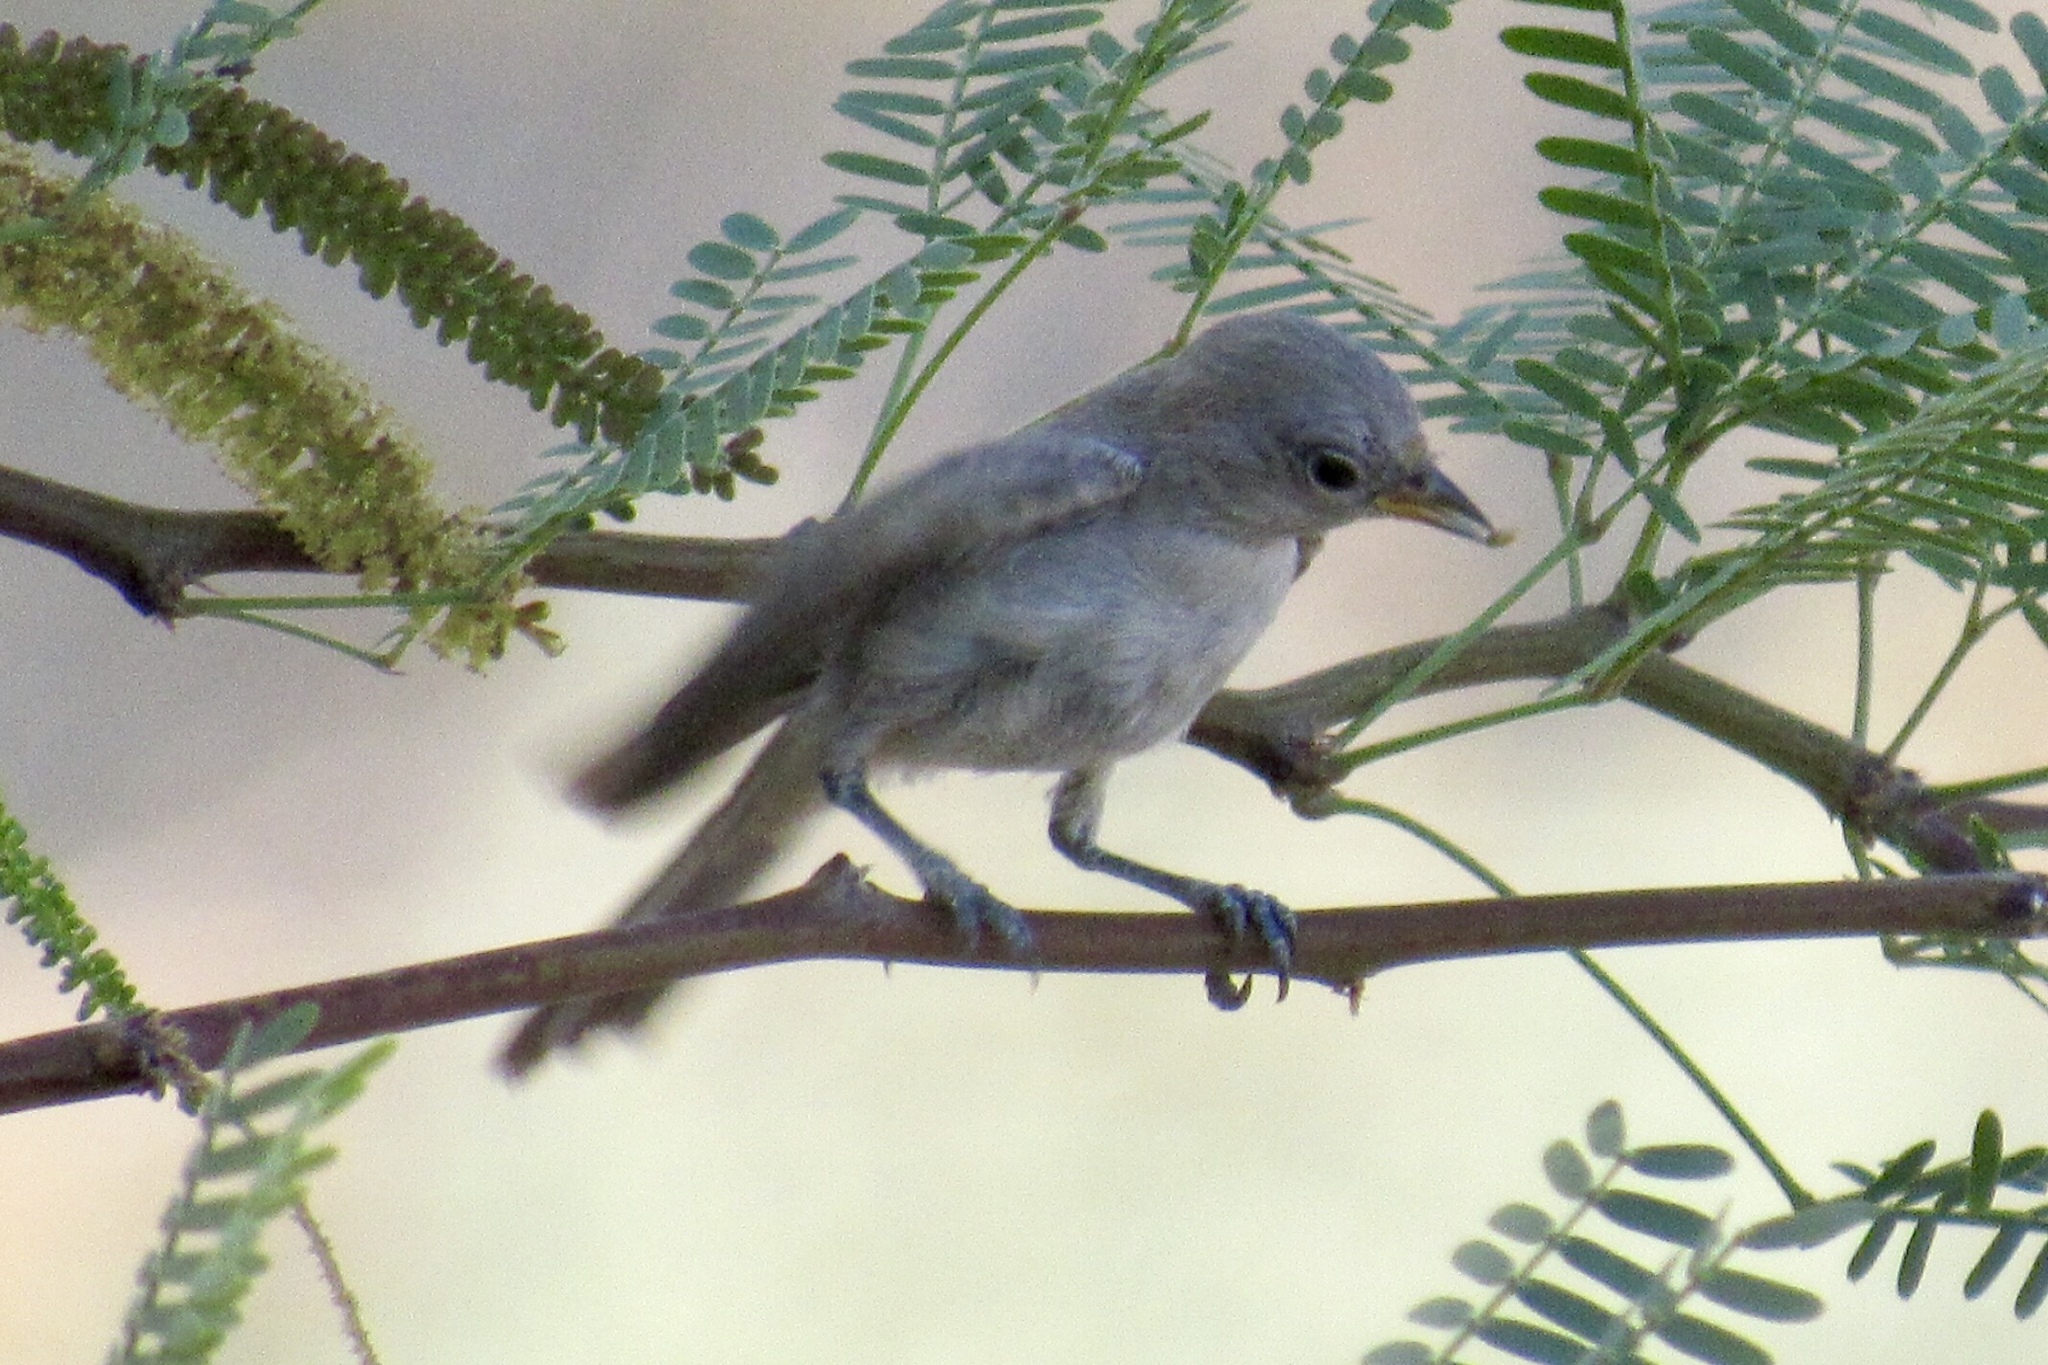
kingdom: Animalia
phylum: Chordata
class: Aves
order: Passeriformes
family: Remizidae
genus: Auriparus
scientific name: Auriparus flaviceps
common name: Verdin
